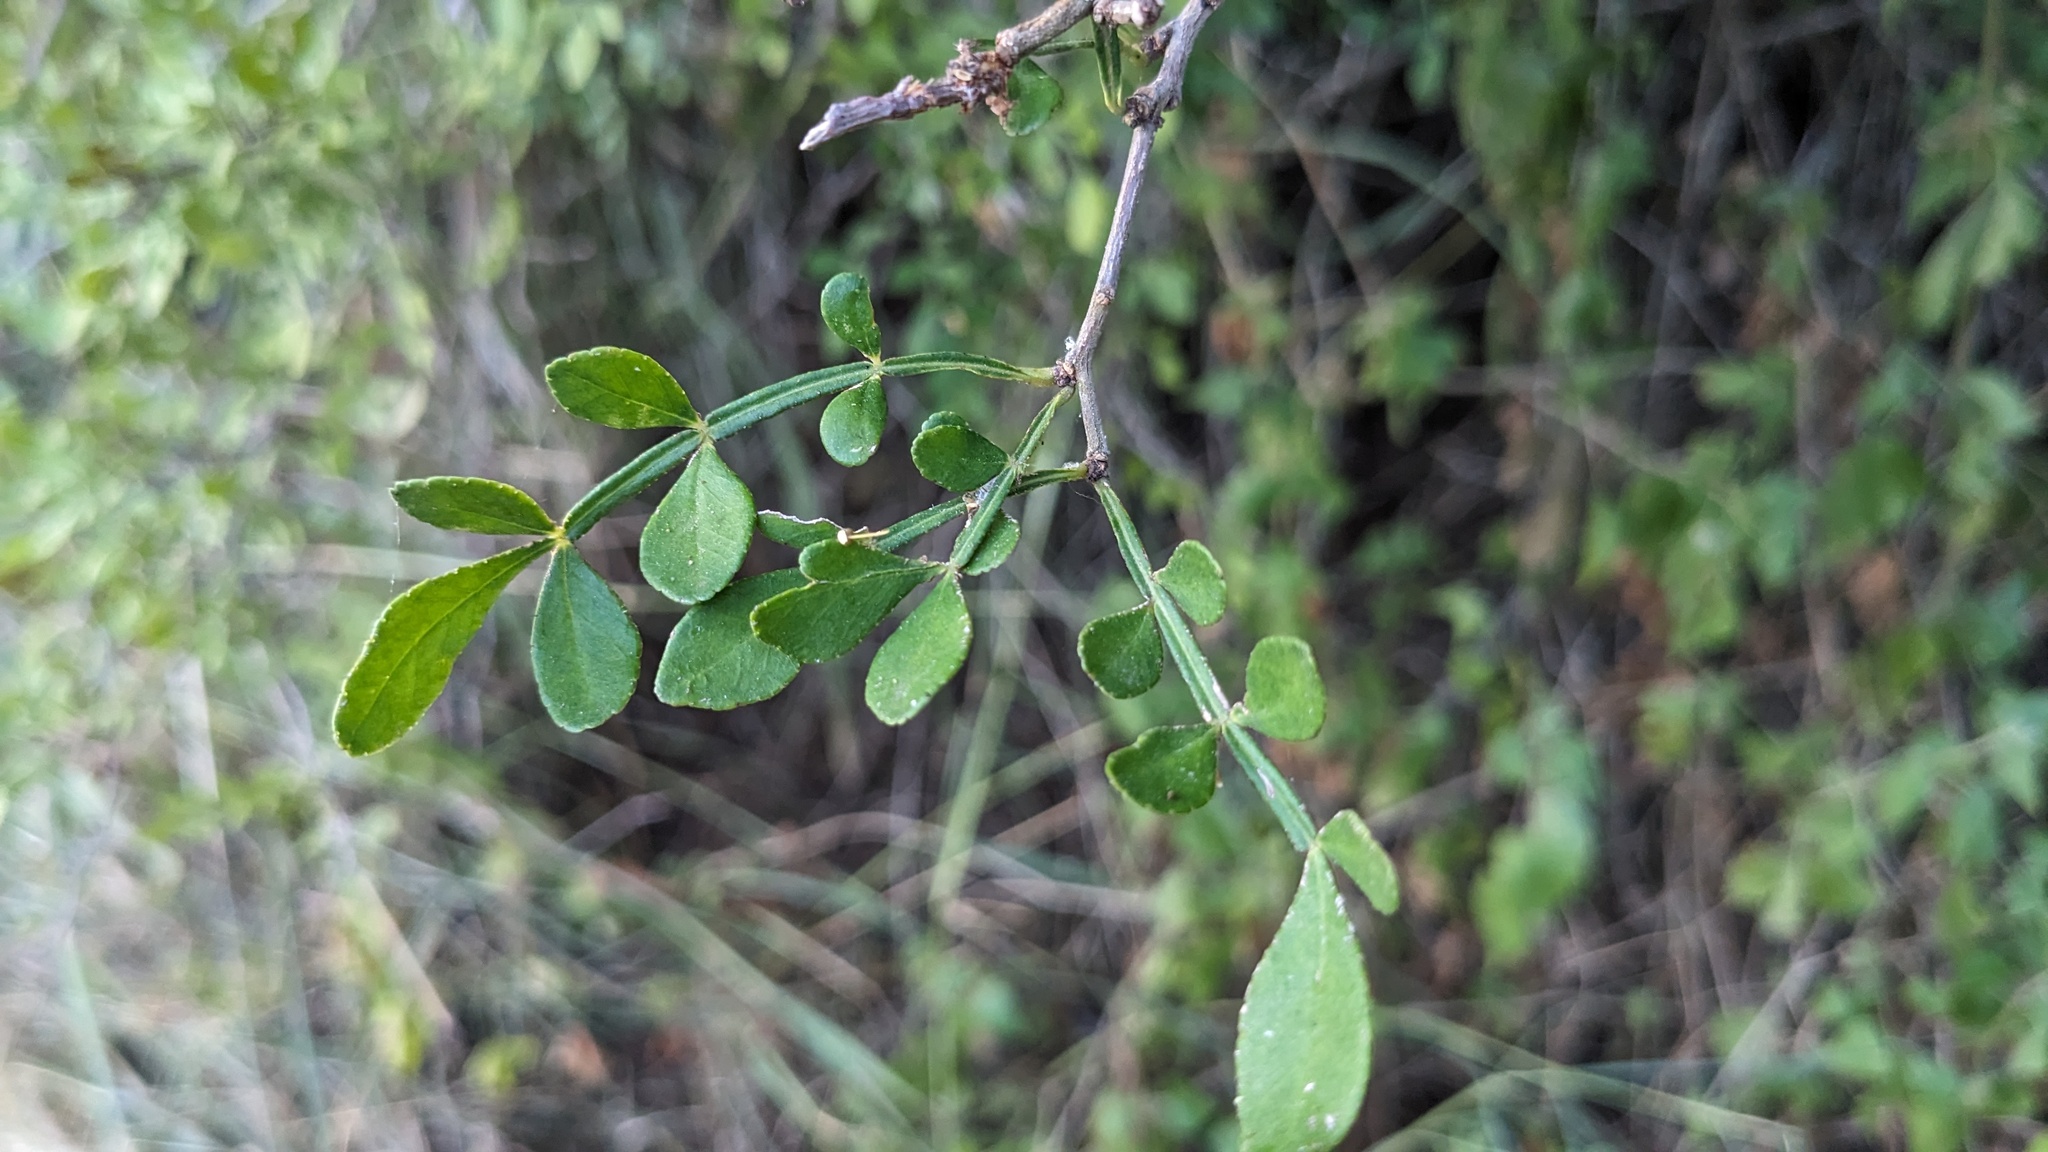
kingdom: Plantae
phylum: Tracheophyta
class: Magnoliopsida
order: Sapindales
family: Rutaceae
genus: Zanthoxylum
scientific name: Zanthoxylum fagara
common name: Lime prickly-ash
